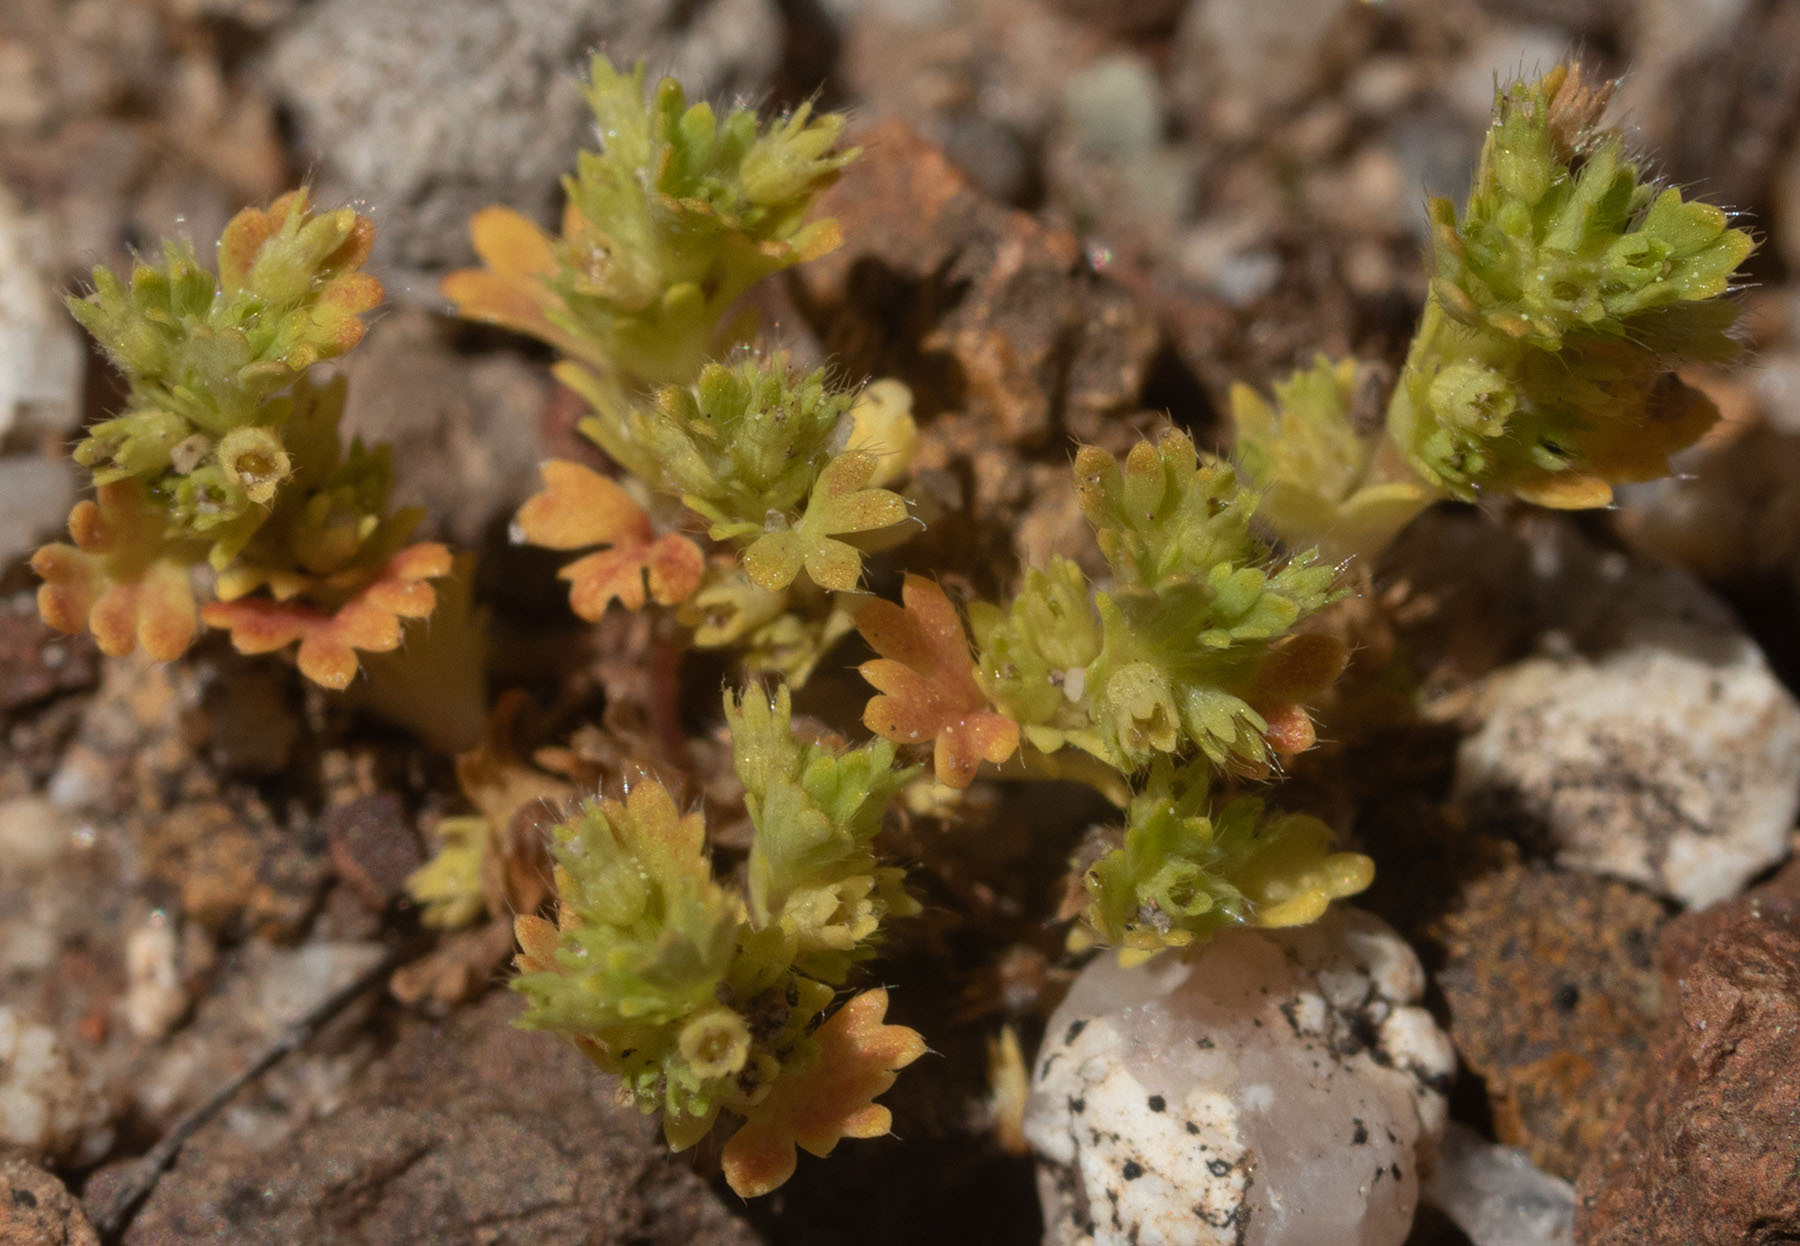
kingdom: Plantae
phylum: Tracheophyta
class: Magnoliopsida
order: Rosales
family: Rosaceae
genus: Aphanes
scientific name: Aphanes arvensis
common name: Parsley-piert
